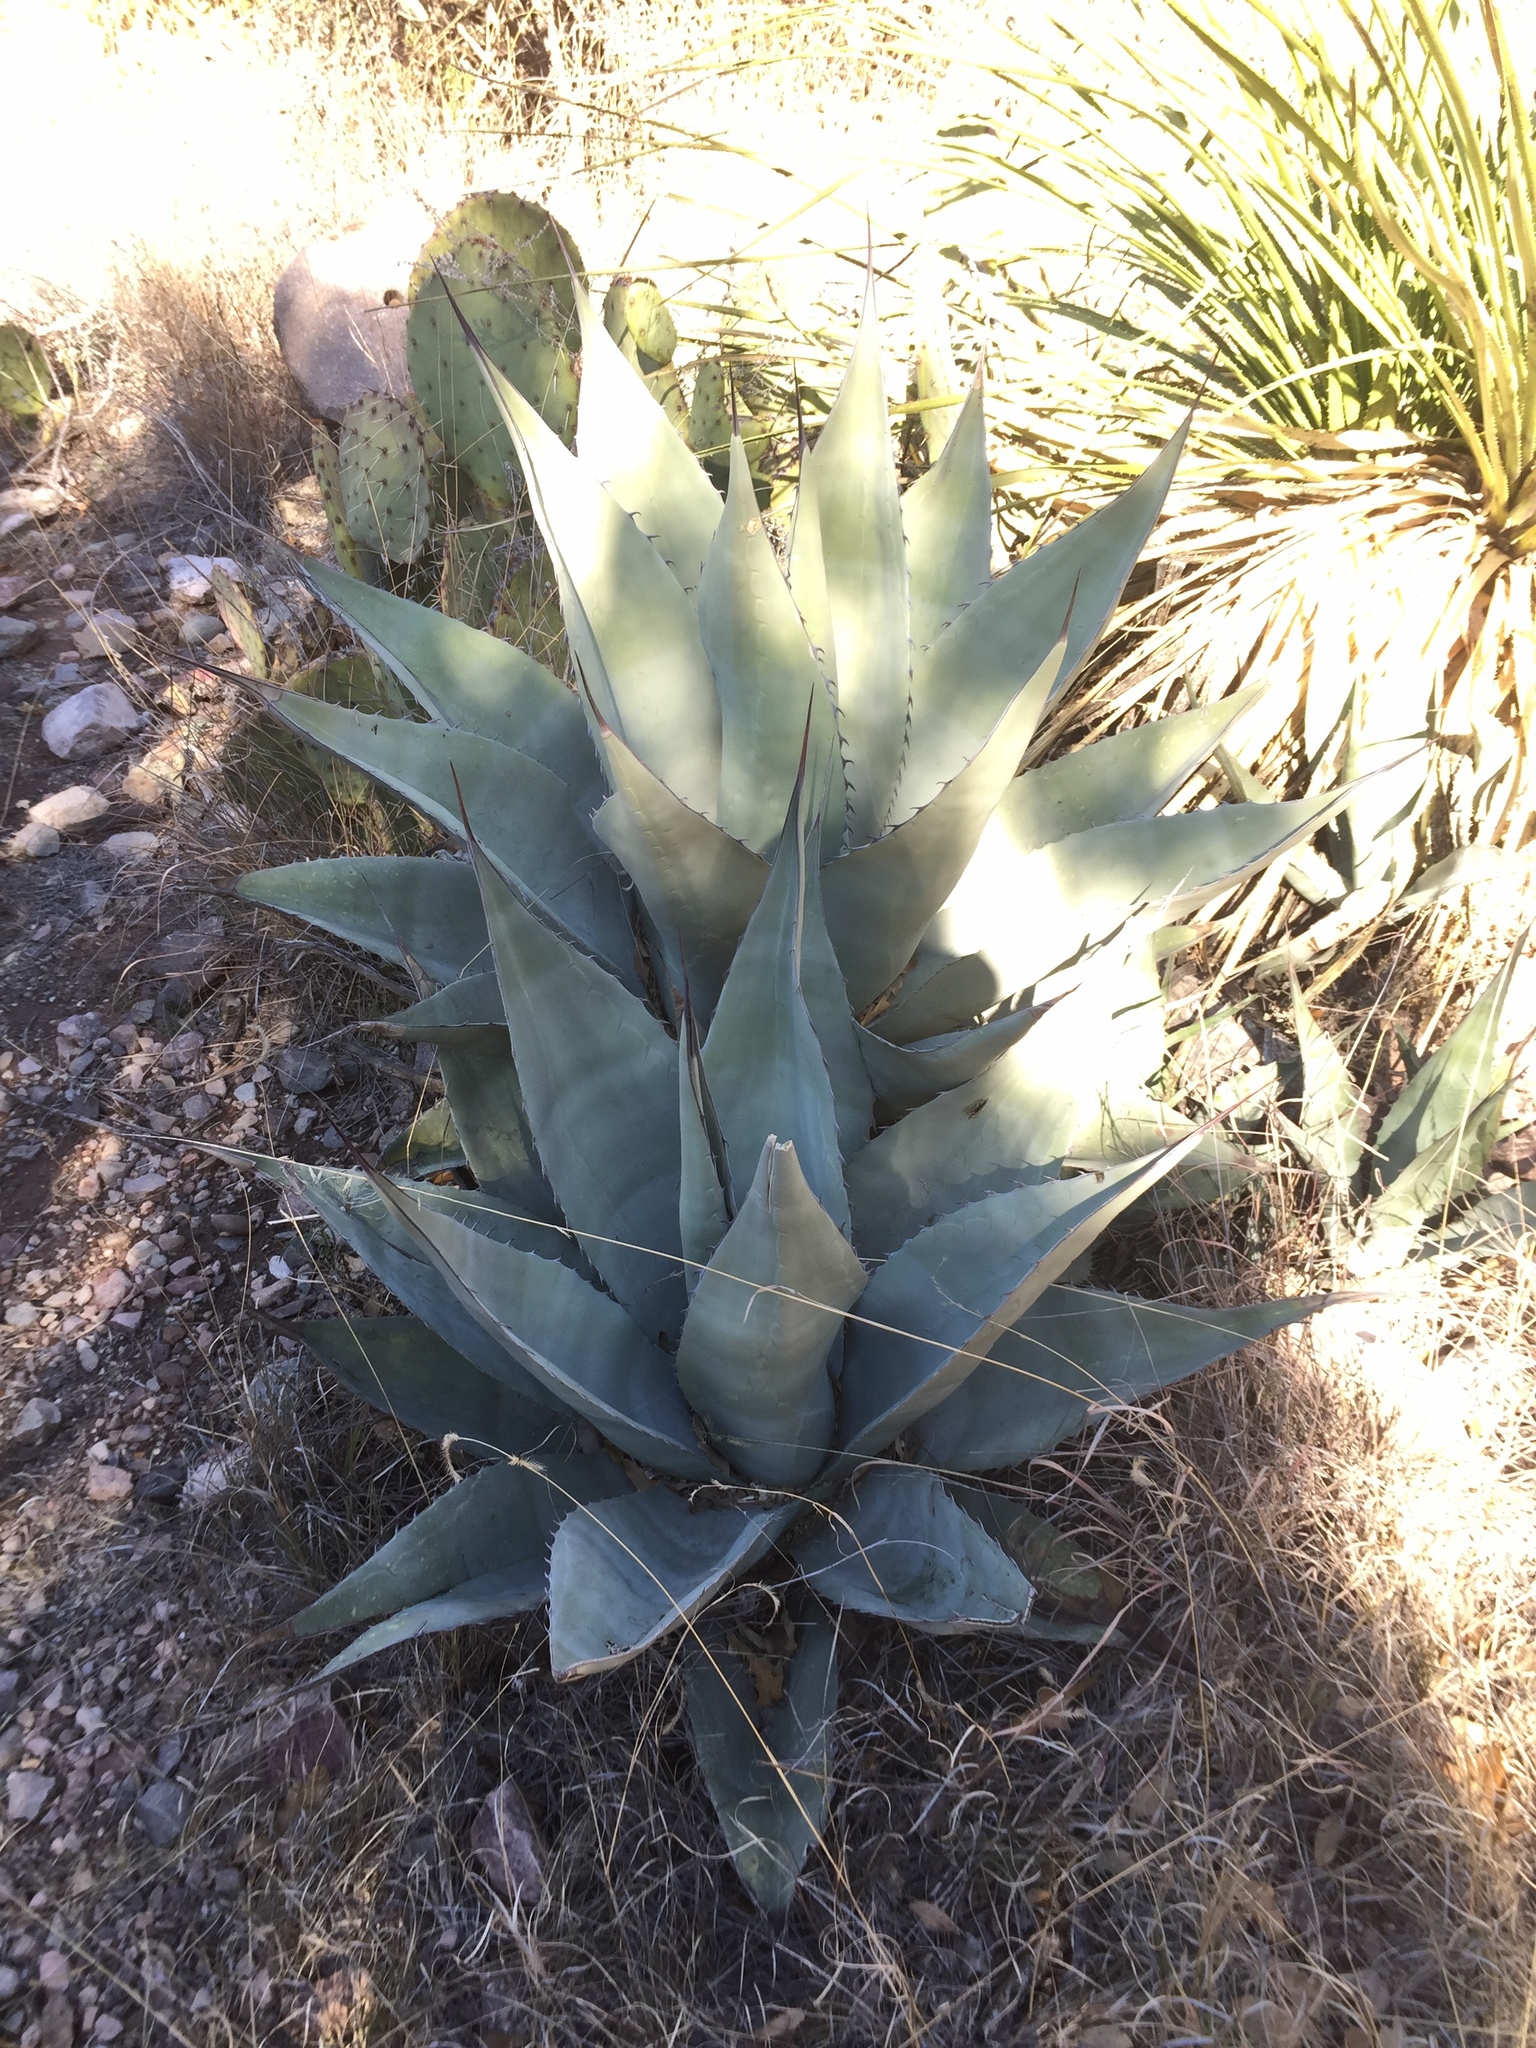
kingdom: Plantae
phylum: Tracheophyta
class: Liliopsida
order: Asparagales
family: Asparagaceae
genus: Agave
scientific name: Agave havardiana
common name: Havard agave
